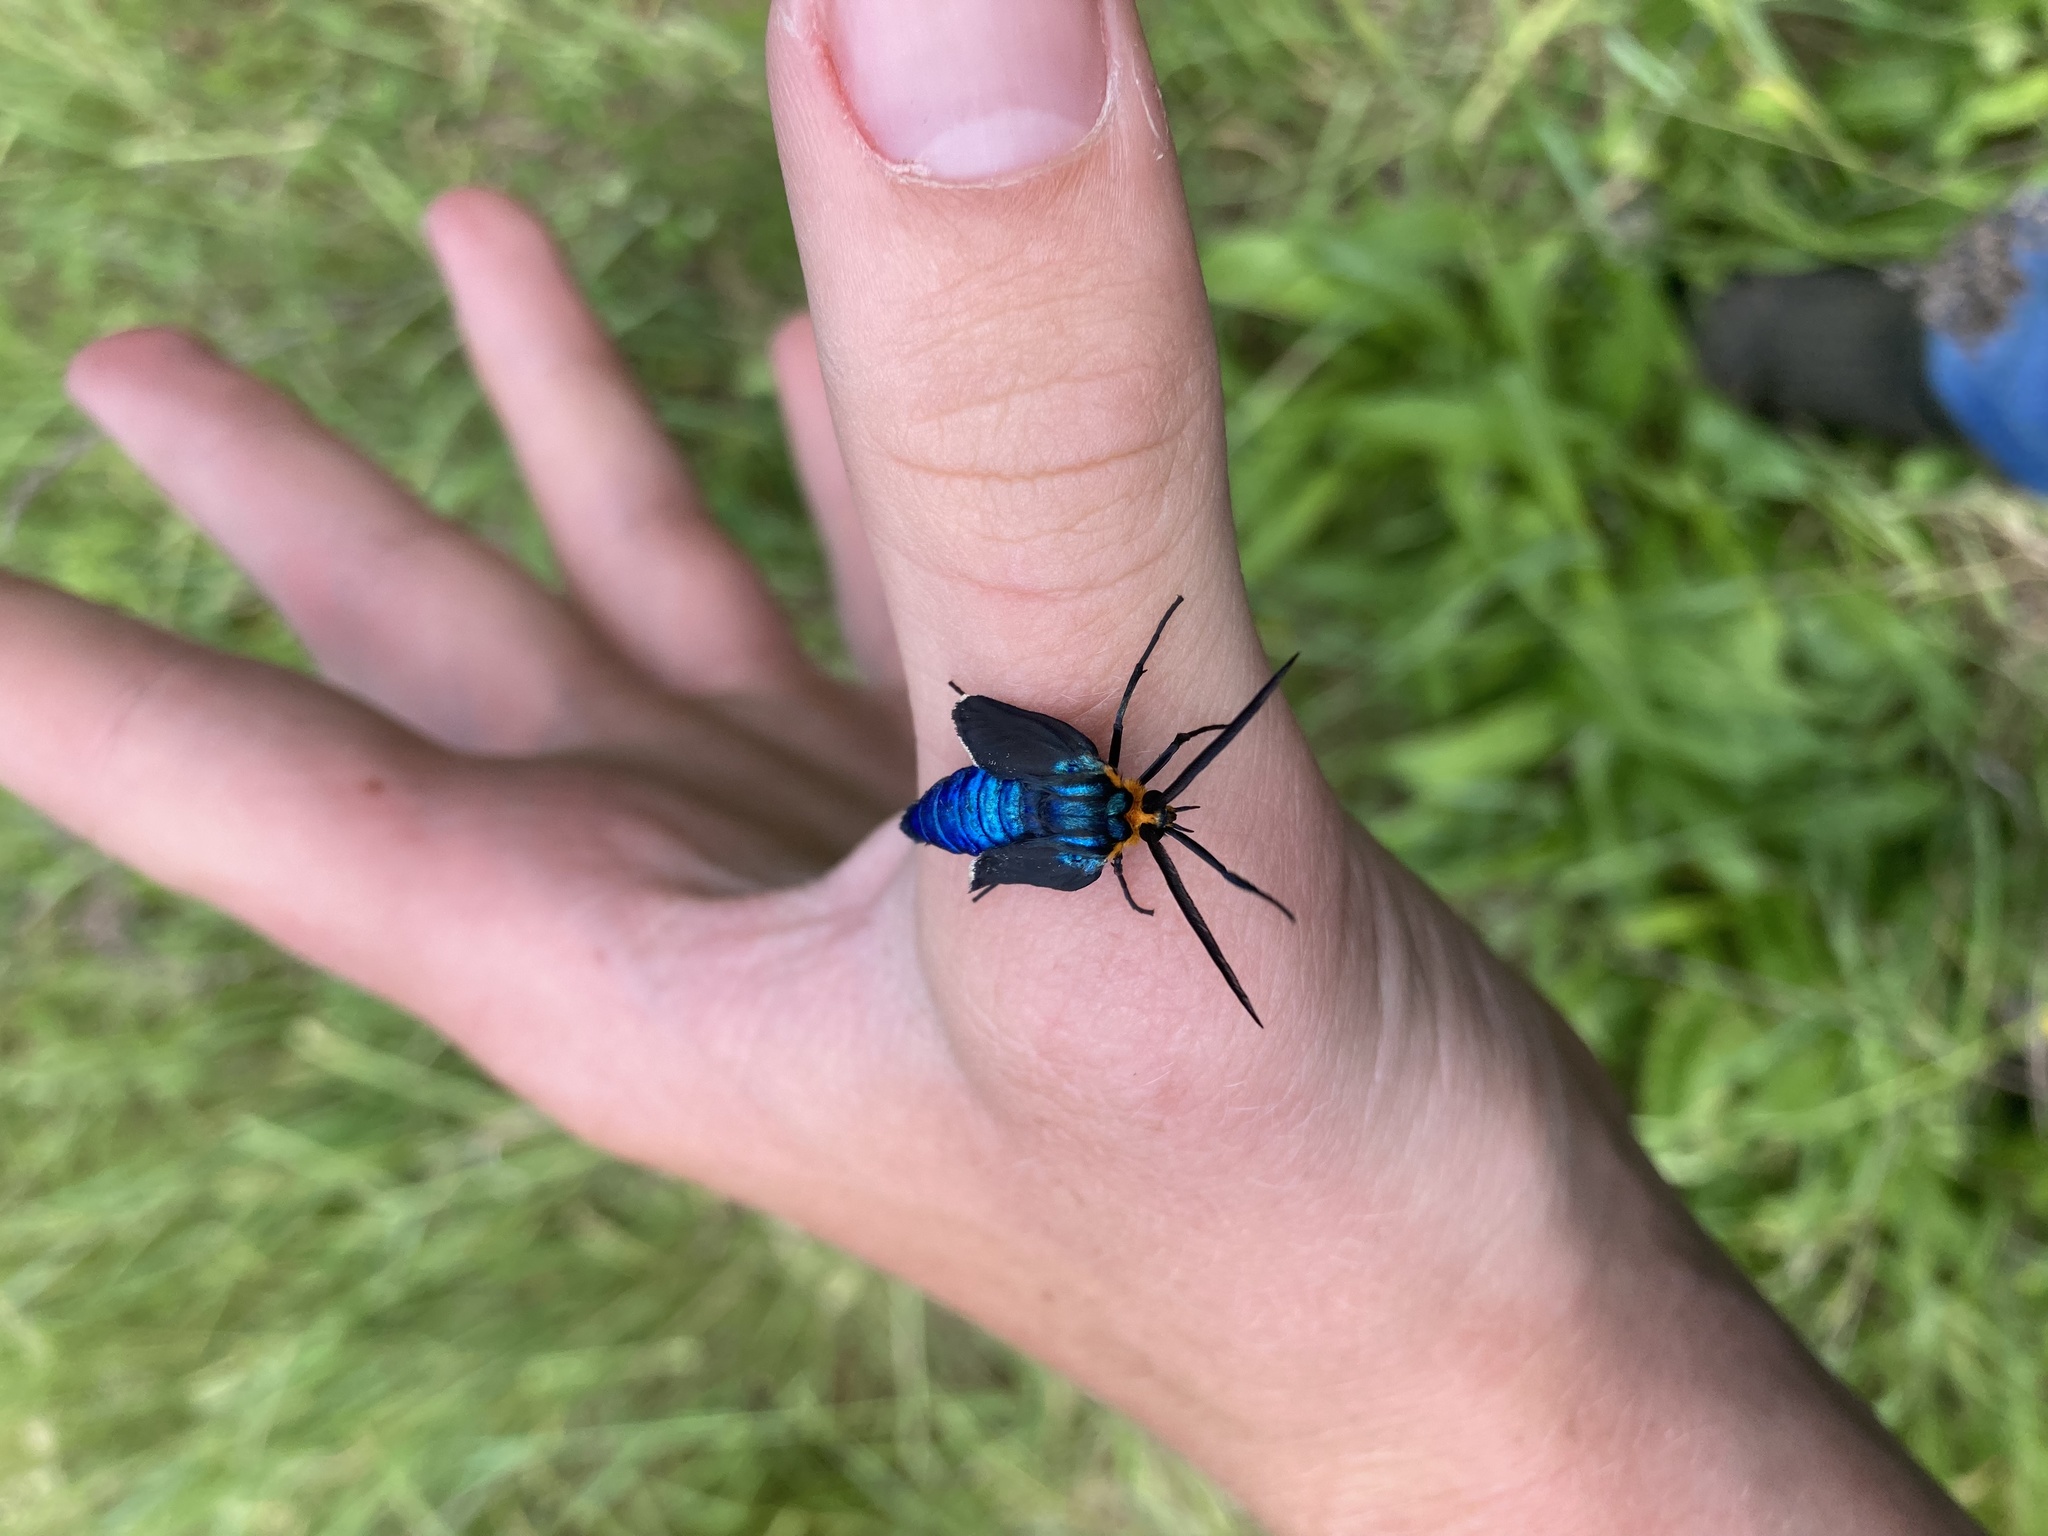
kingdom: Animalia
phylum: Arthropoda
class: Insecta
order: Lepidoptera
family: Erebidae
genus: Ctenucha
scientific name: Ctenucha virginica
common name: Virginia ctenucha moth
